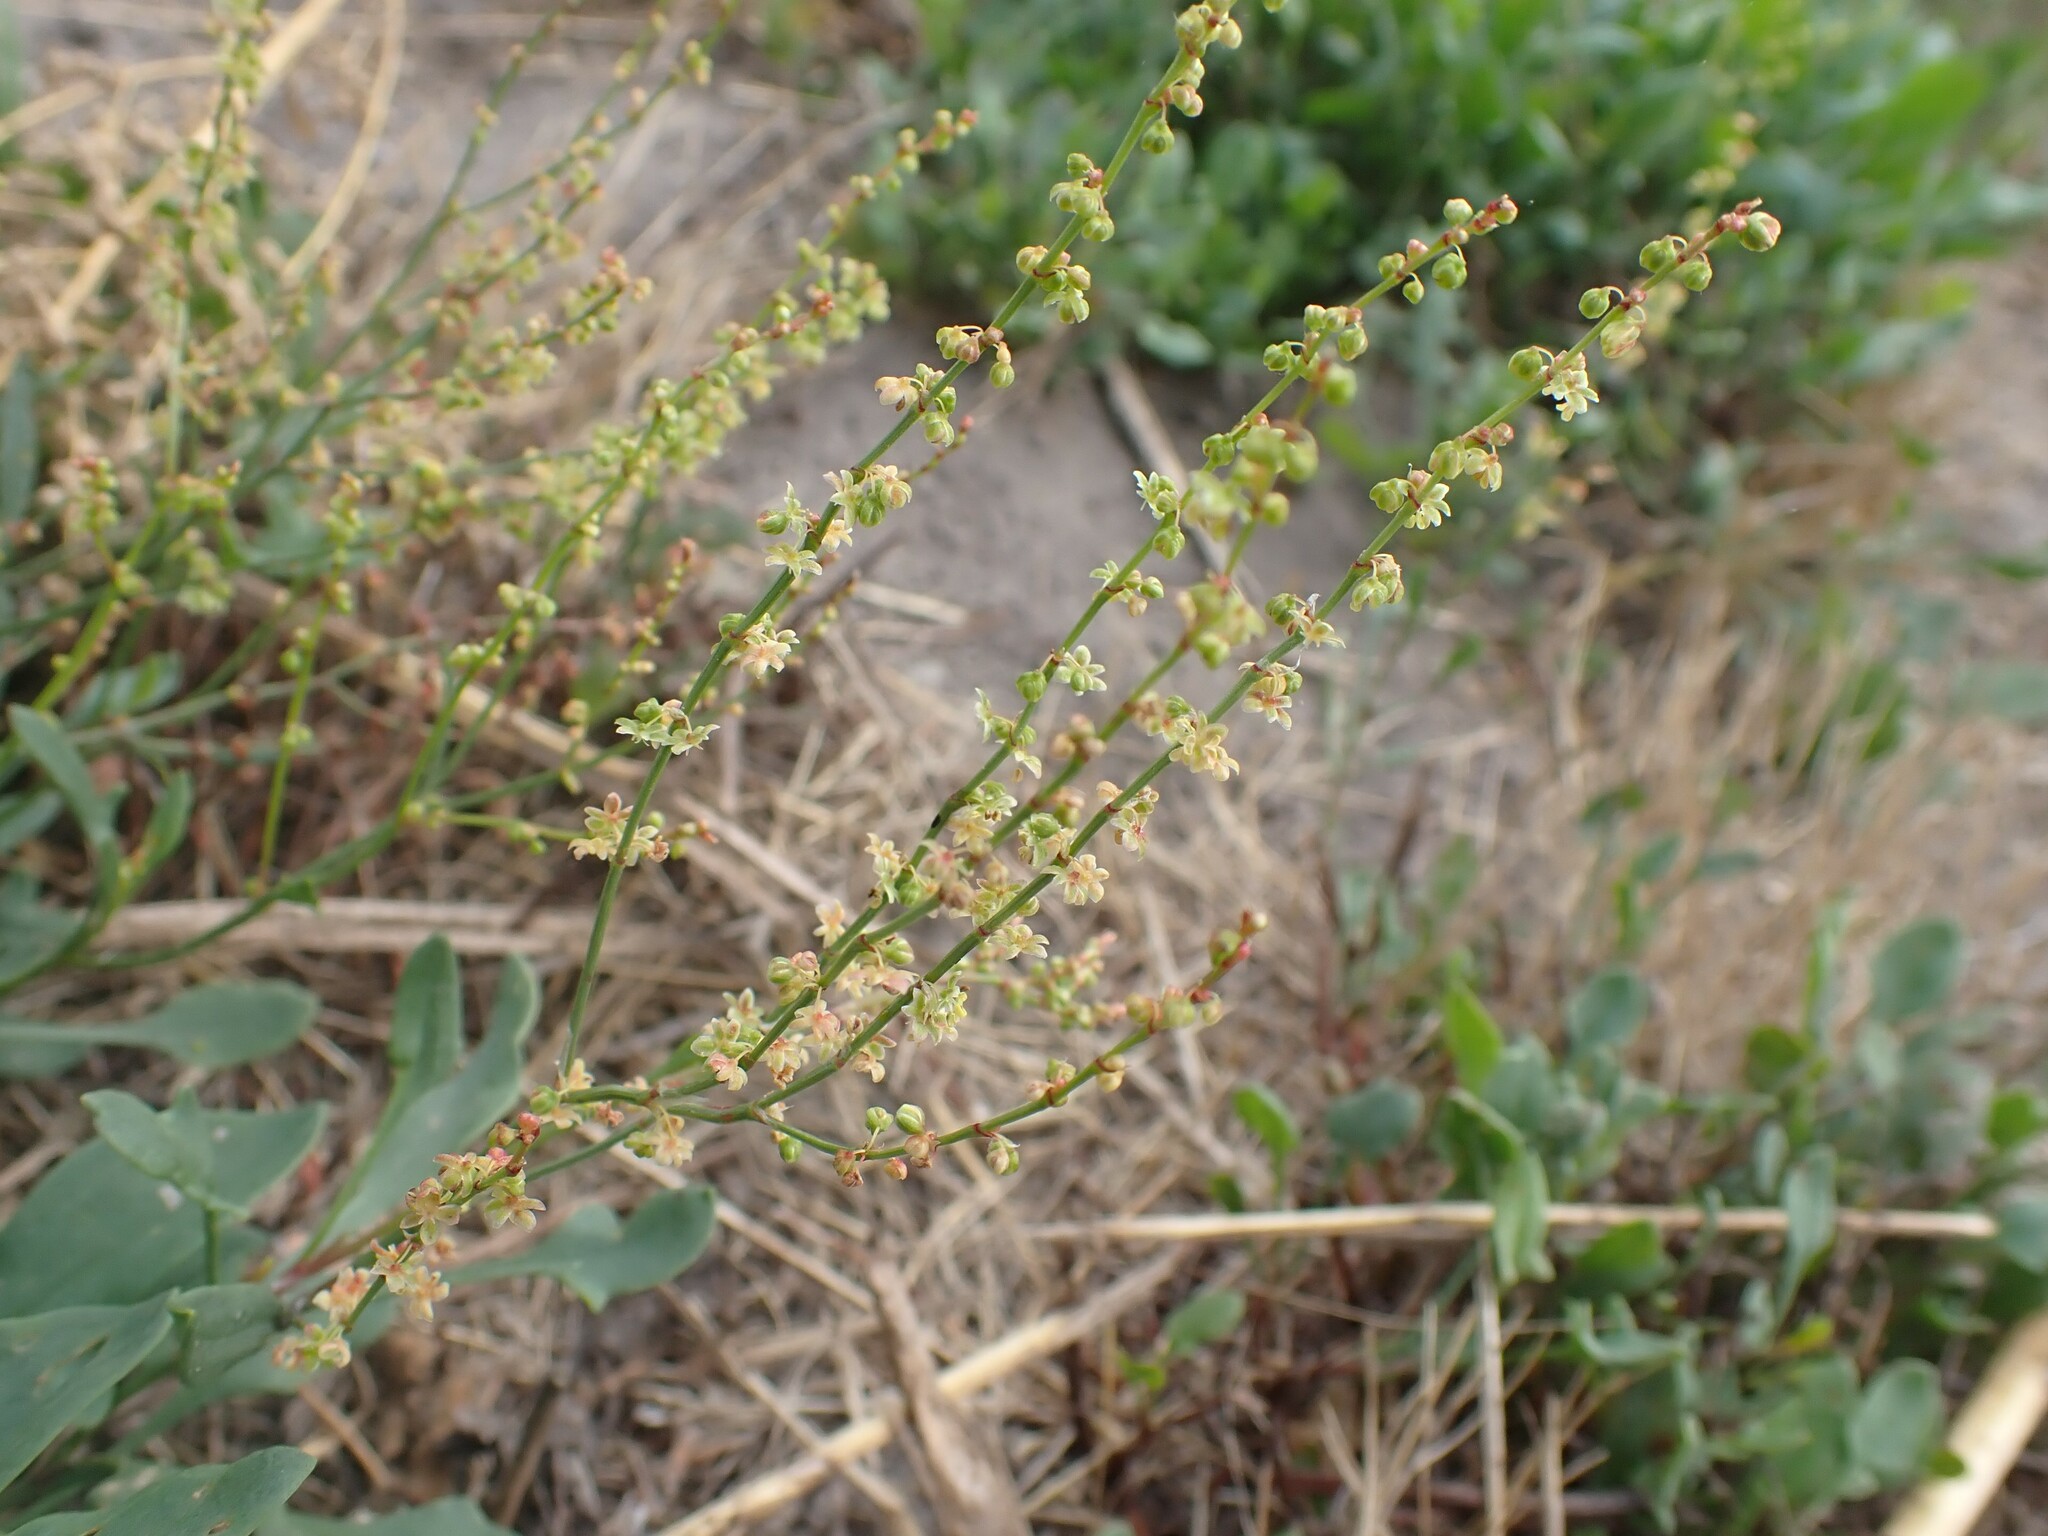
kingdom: Plantae
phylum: Tracheophyta
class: Magnoliopsida
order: Caryophyllales
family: Polygonaceae
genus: Rumex
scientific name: Rumex acetosella
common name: Common sheep sorrel
